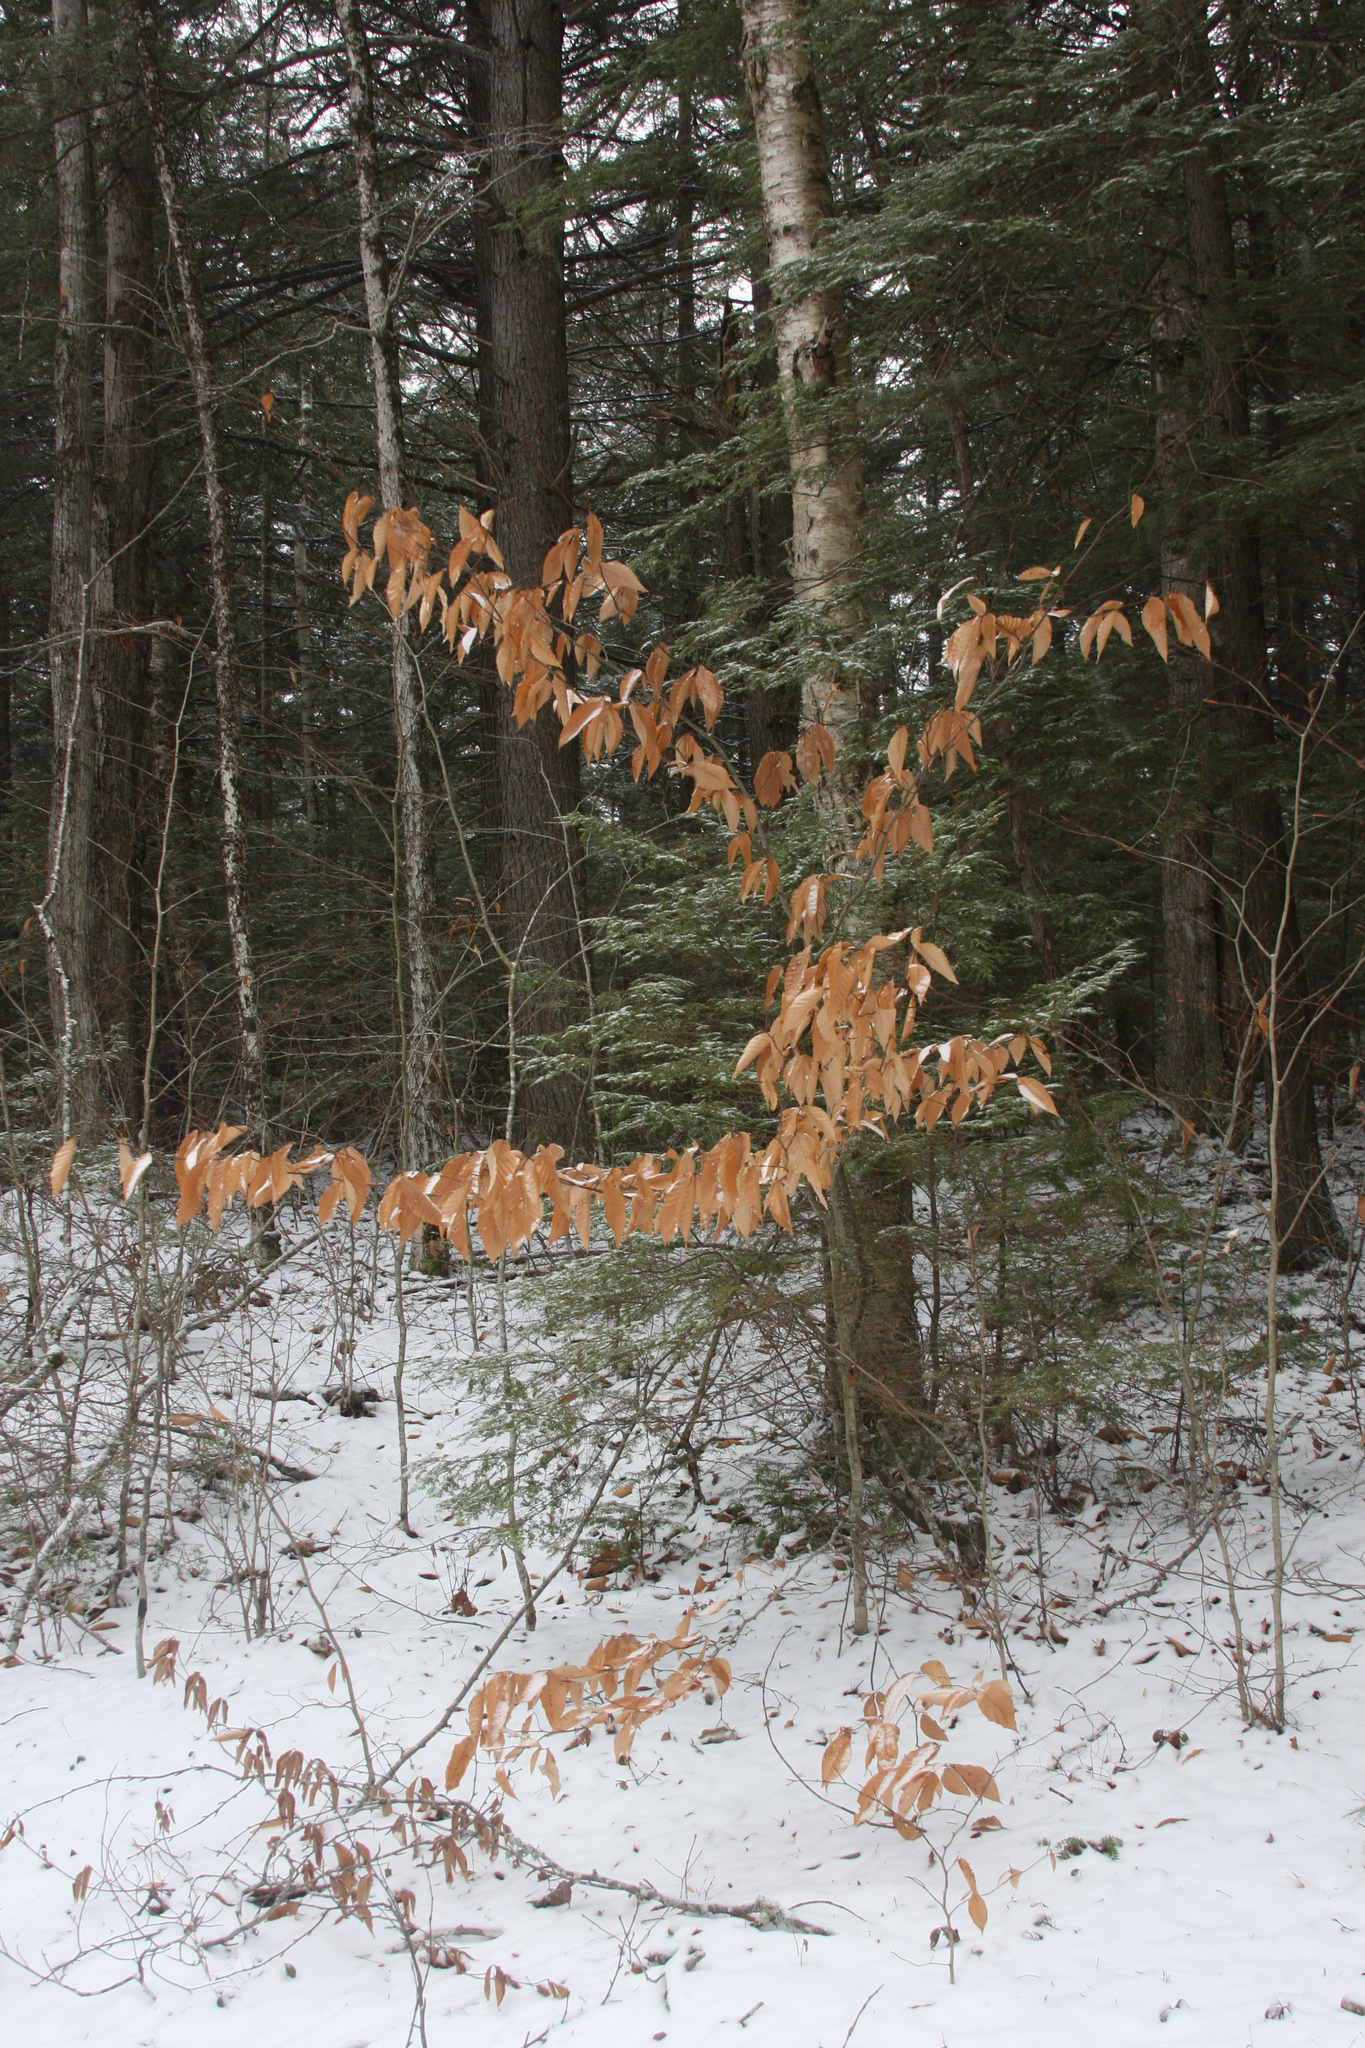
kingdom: Plantae
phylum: Tracheophyta
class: Magnoliopsida
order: Fagales
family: Fagaceae
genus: Fagus
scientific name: Fagus grandifolia
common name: American beech
